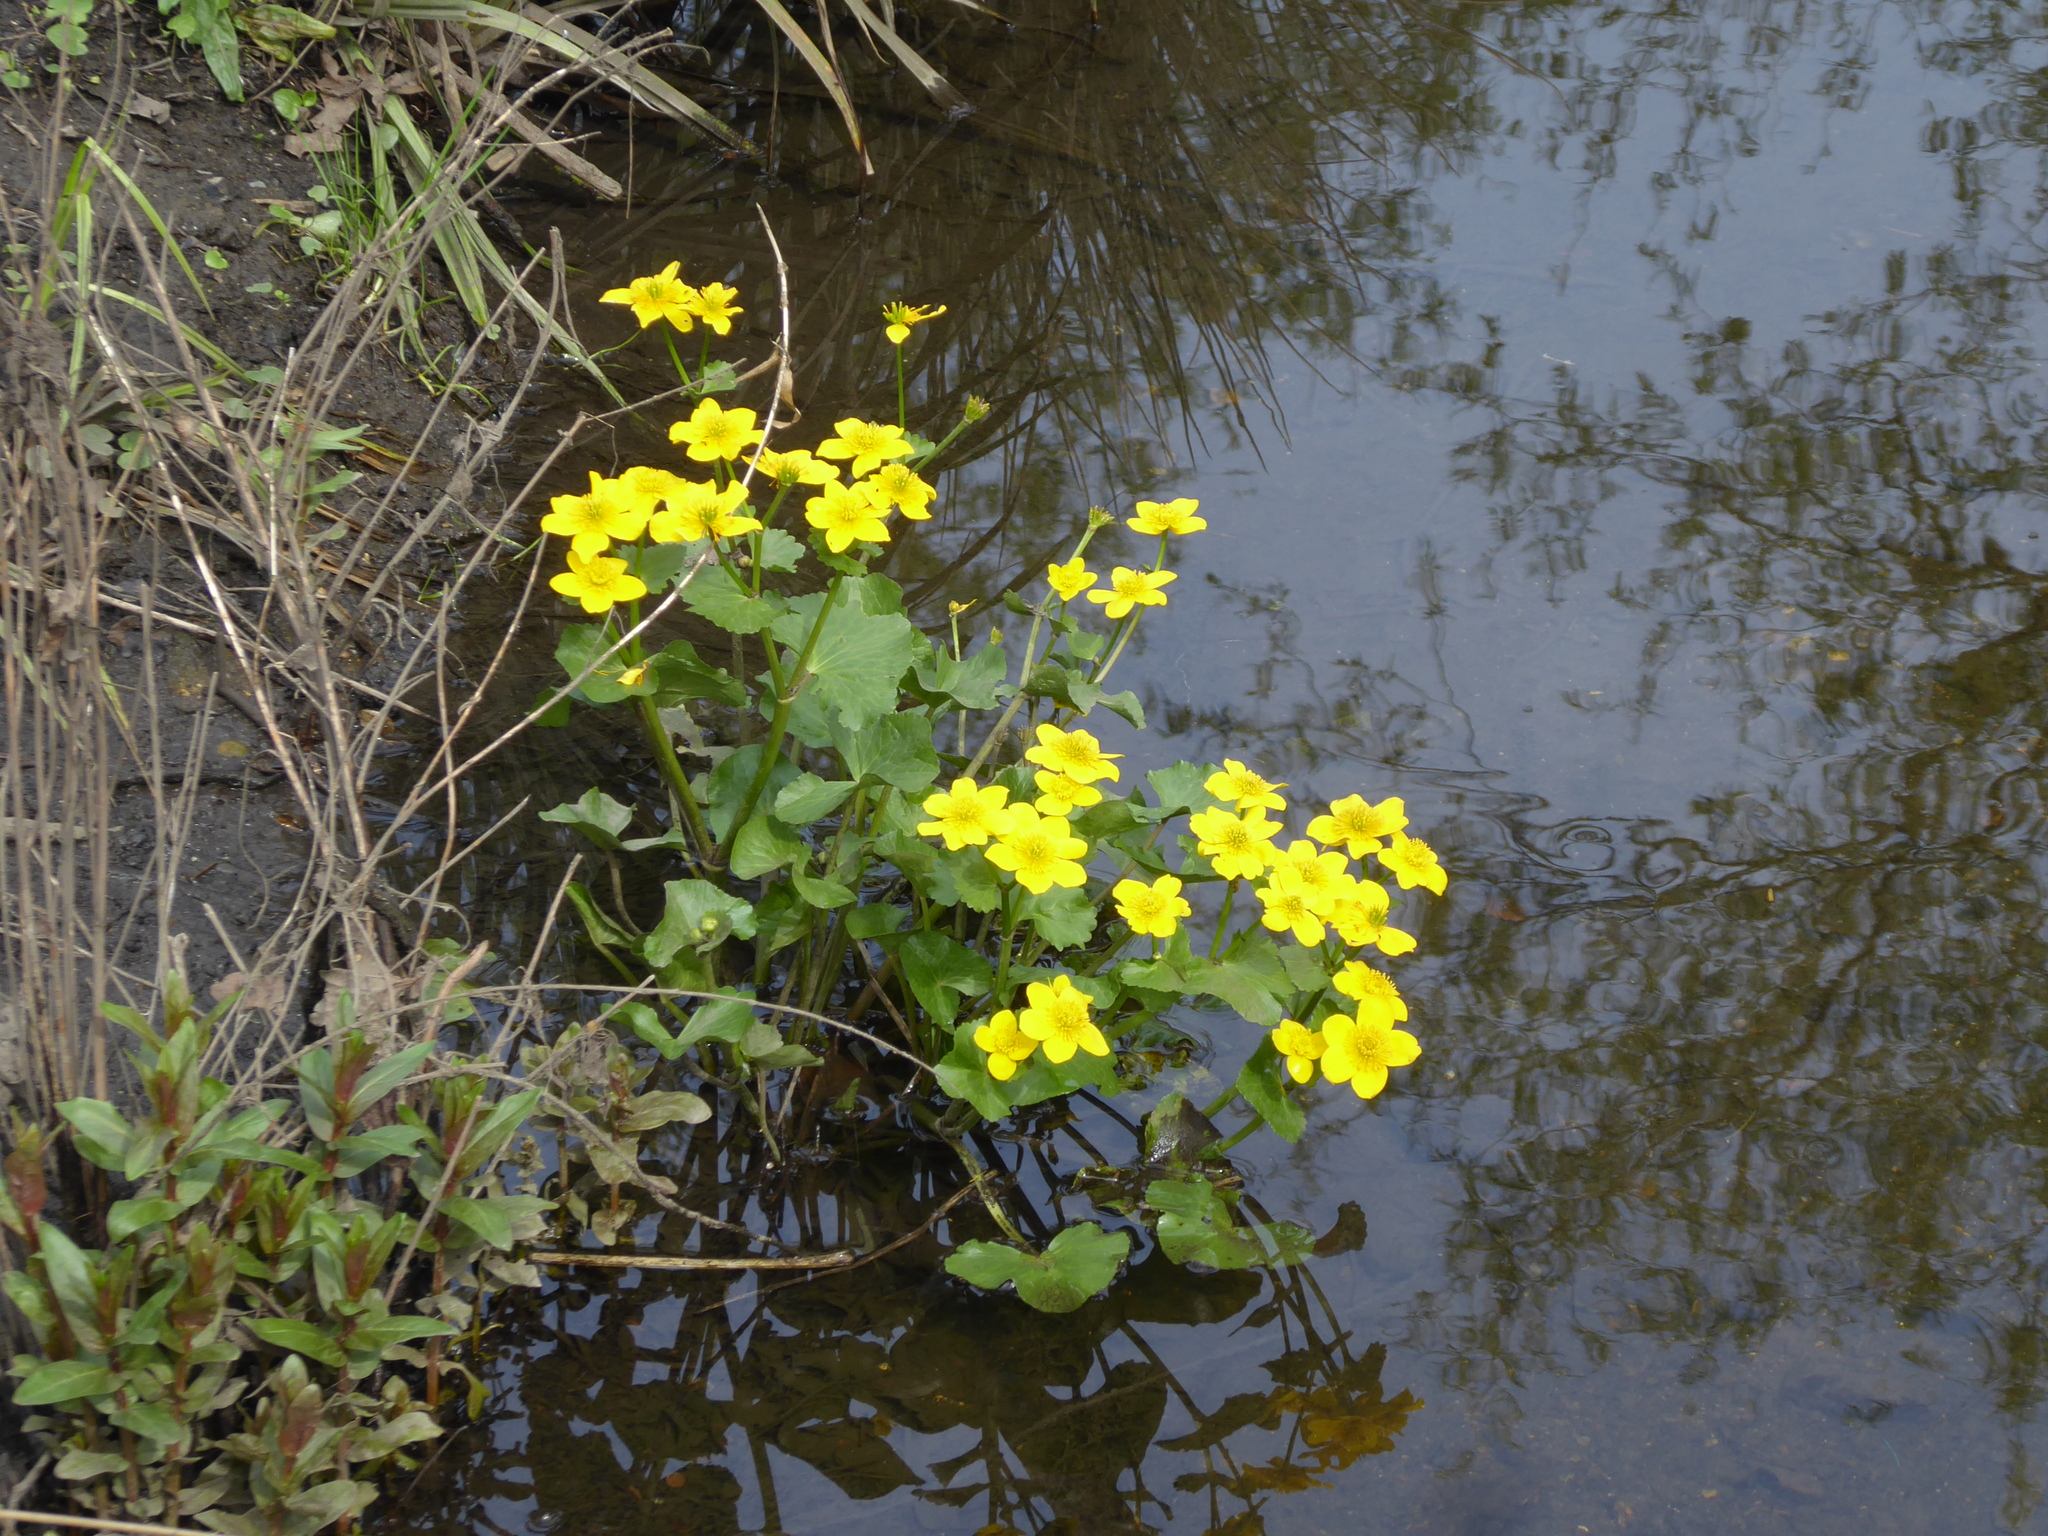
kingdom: Plantae
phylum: Tracheophyta
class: Magnoliopsida
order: Ranunculales
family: Ranunculaceae
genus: Caltha
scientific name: Caltha palustris
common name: Marsh marigold
